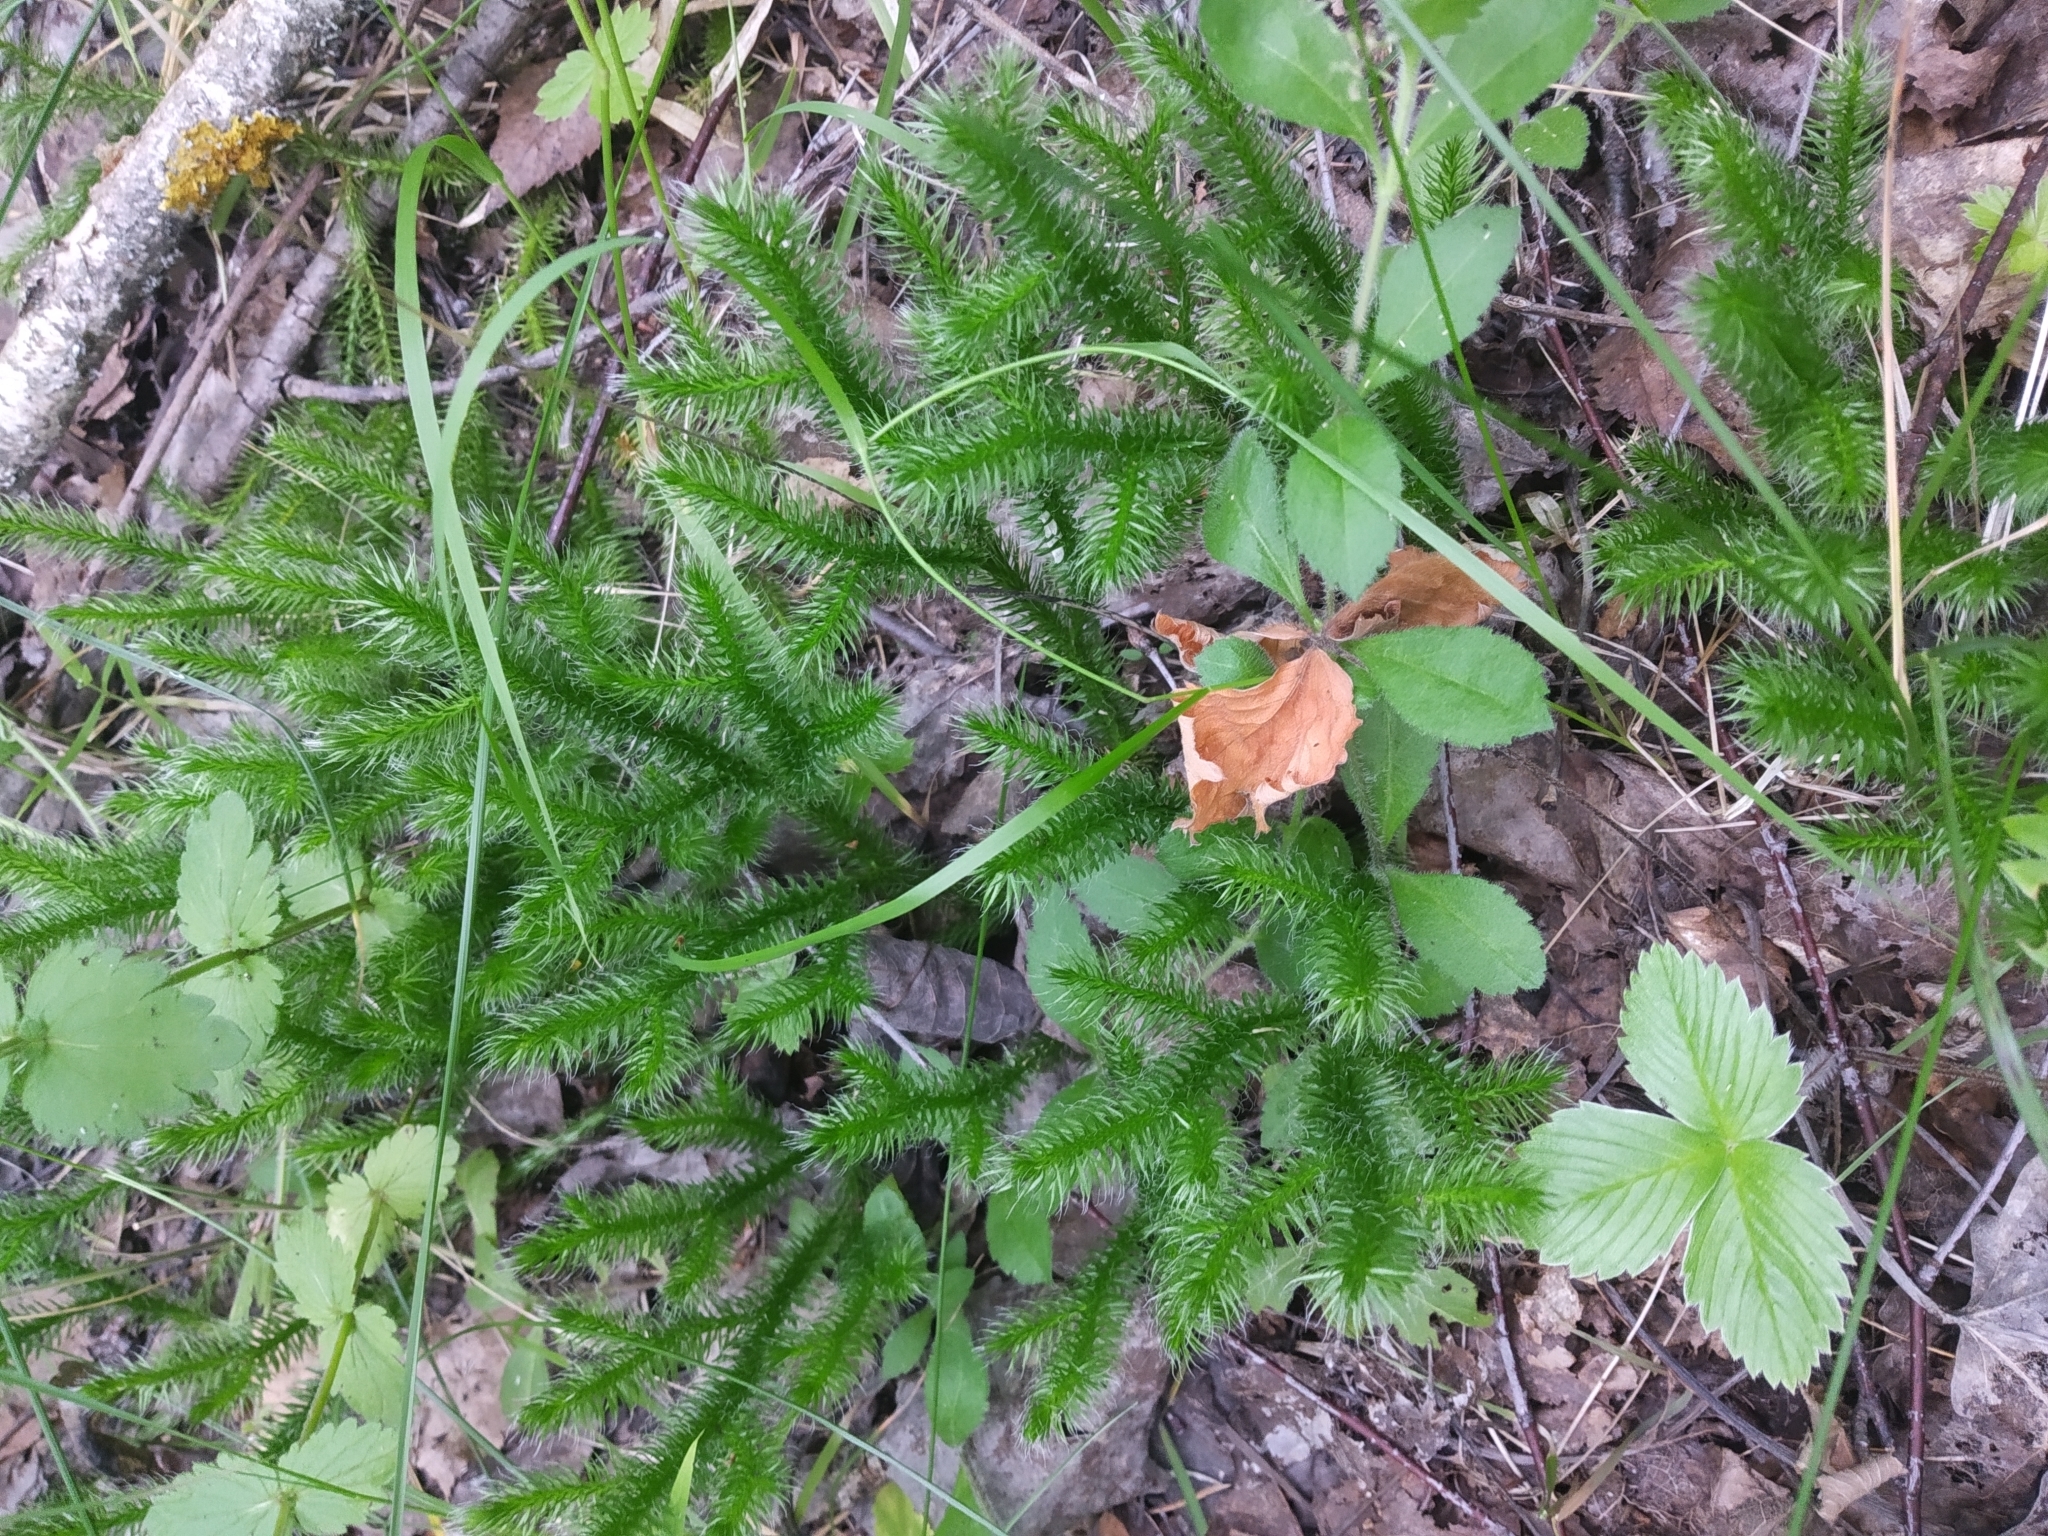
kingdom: Plantae
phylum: Tracheophyta
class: Lycopodiopsida
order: Lycopodiales
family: Lycopodiaceae
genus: Lycopodium
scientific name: Lycopodium clavatum
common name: Stag's-horn clubmoss
